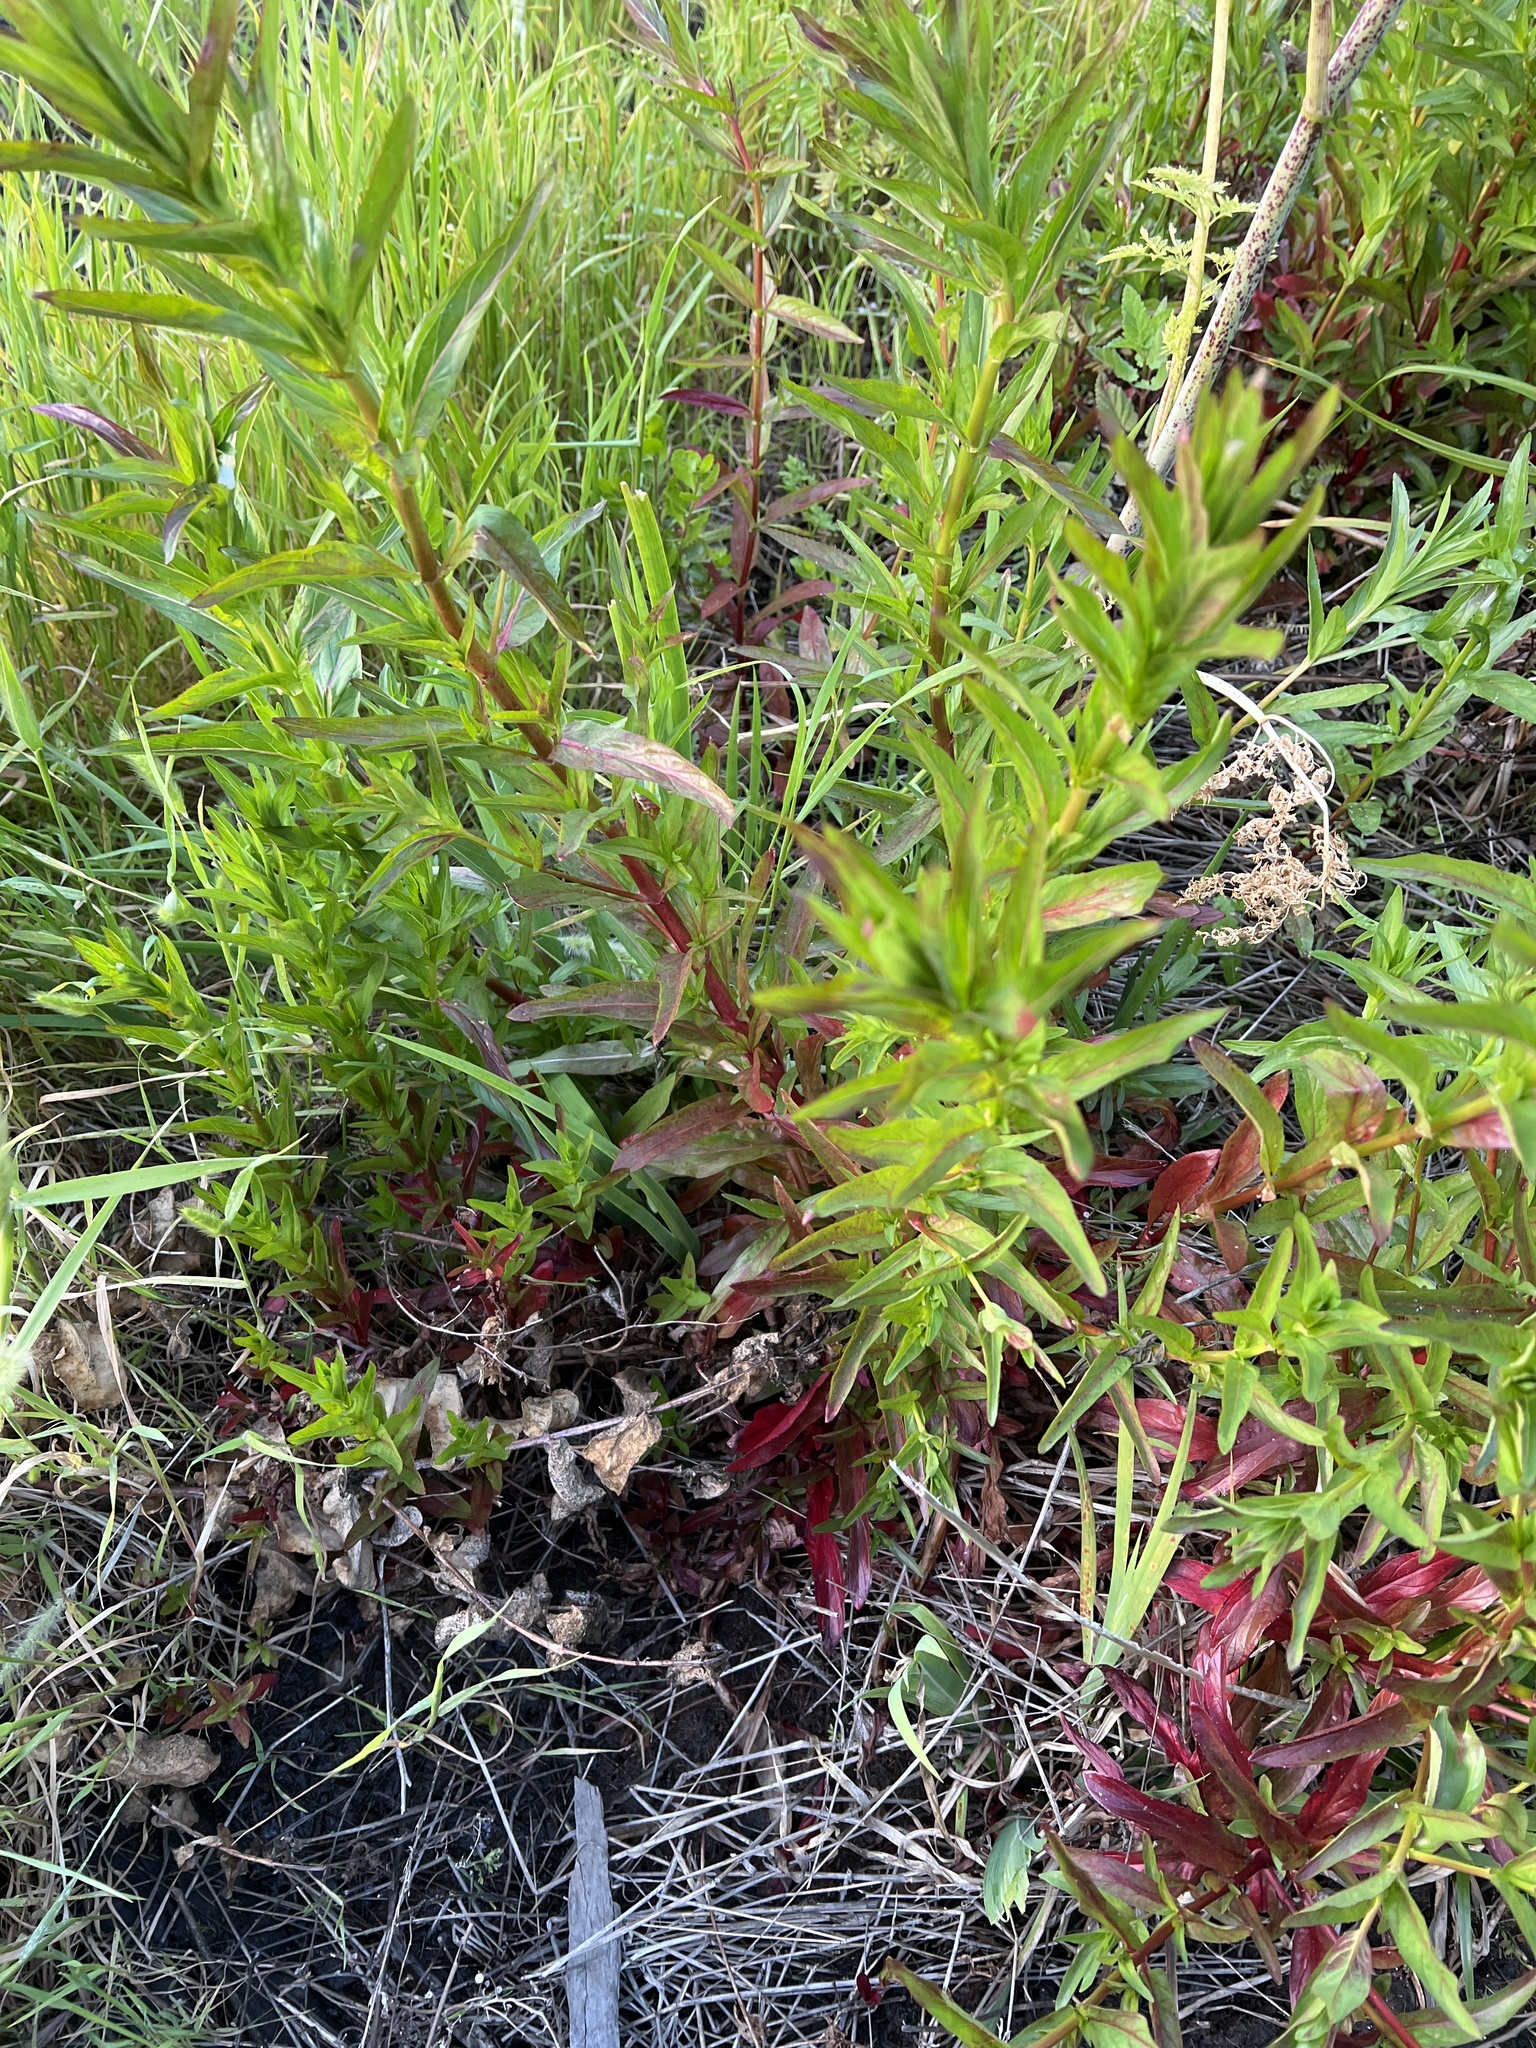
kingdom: Plantae
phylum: Tracheophyta
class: Magnoliopsida
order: Myrtales
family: Onagraceae
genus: Epilobium
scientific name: Epilobium ciliatum
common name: American willowherb
